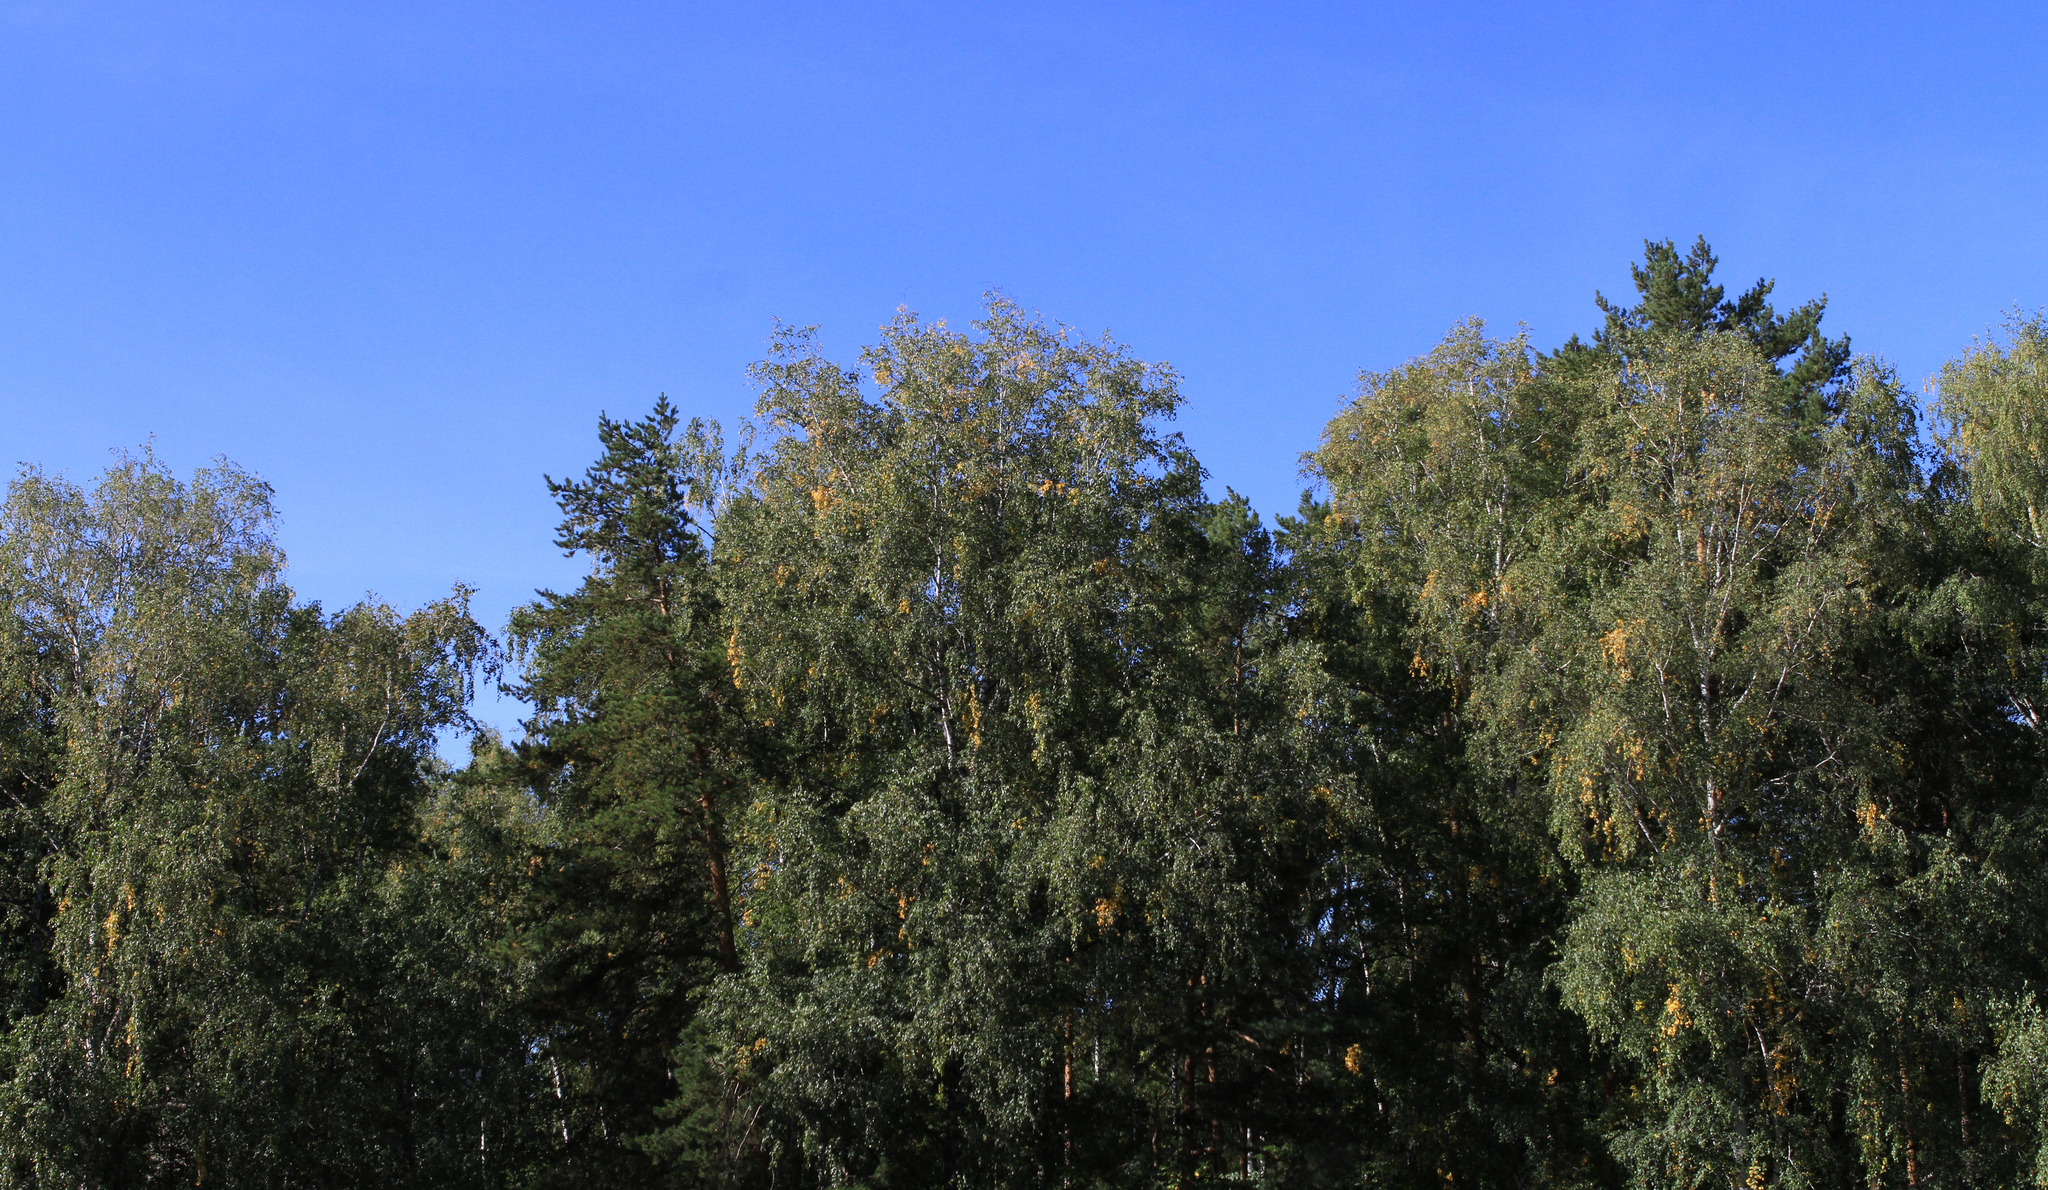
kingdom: Plantae
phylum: Tracheophyta
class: Magnoliopsida
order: Fagales
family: Betulaceae
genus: Betula
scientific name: Betula pendula
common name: Silver birch
